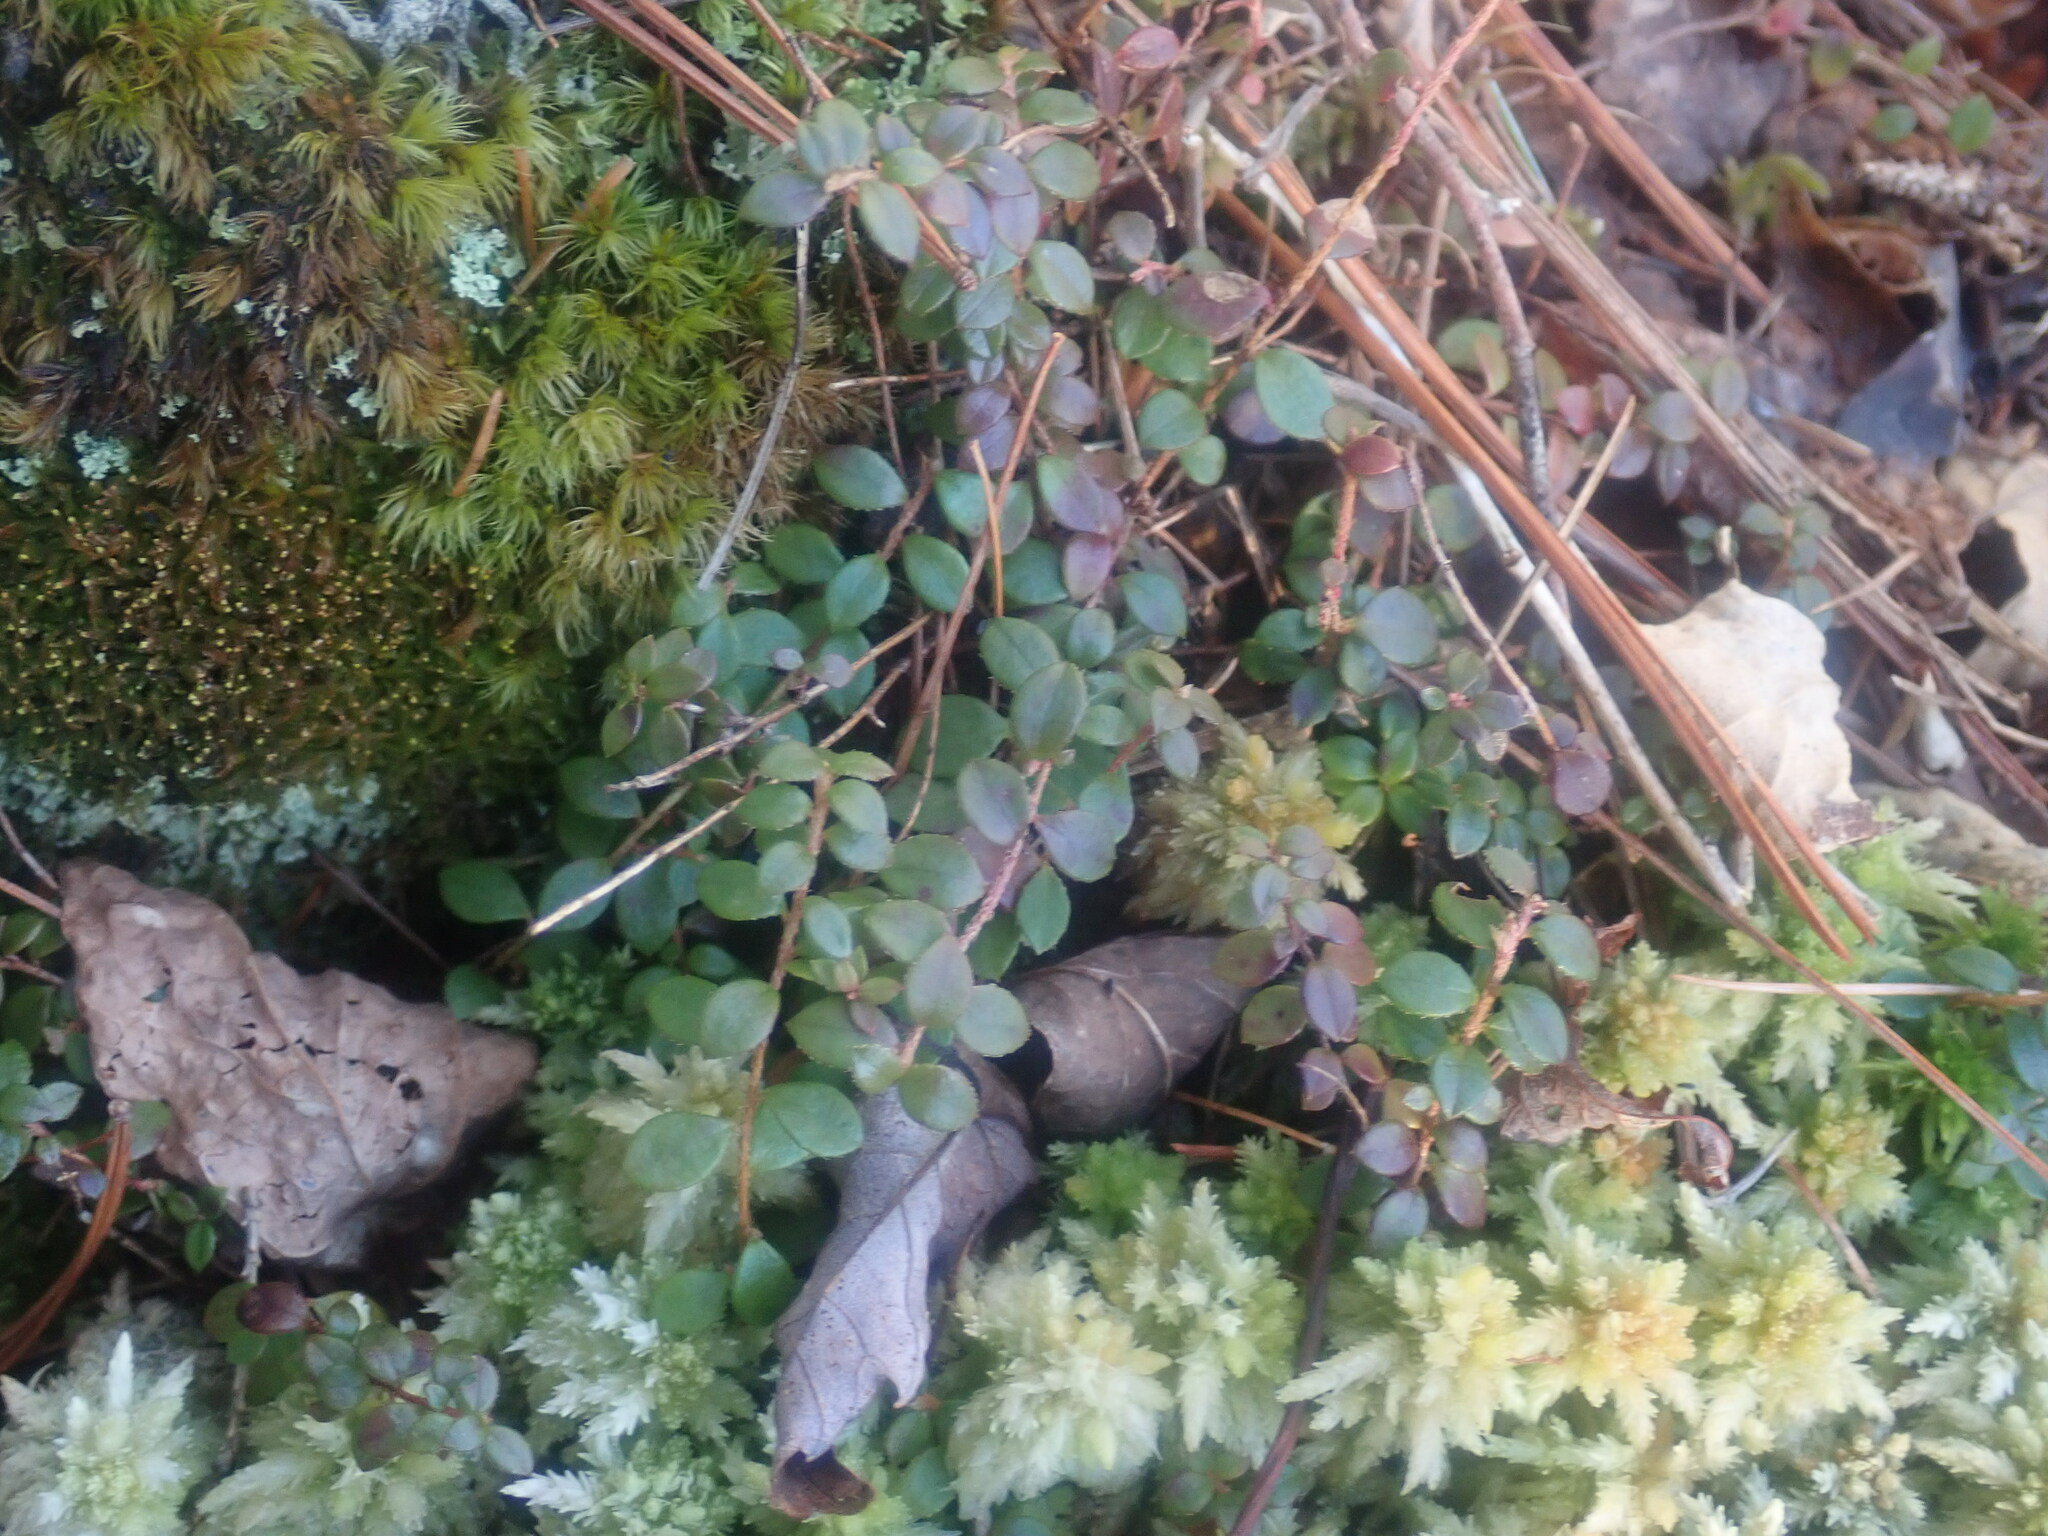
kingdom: Plantae
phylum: Tracheophyta
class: Magnoliopsida
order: Ericales
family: Ericaceae
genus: Gaultheria
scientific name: Gaultheria hispidula
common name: Cancer wintergreen
